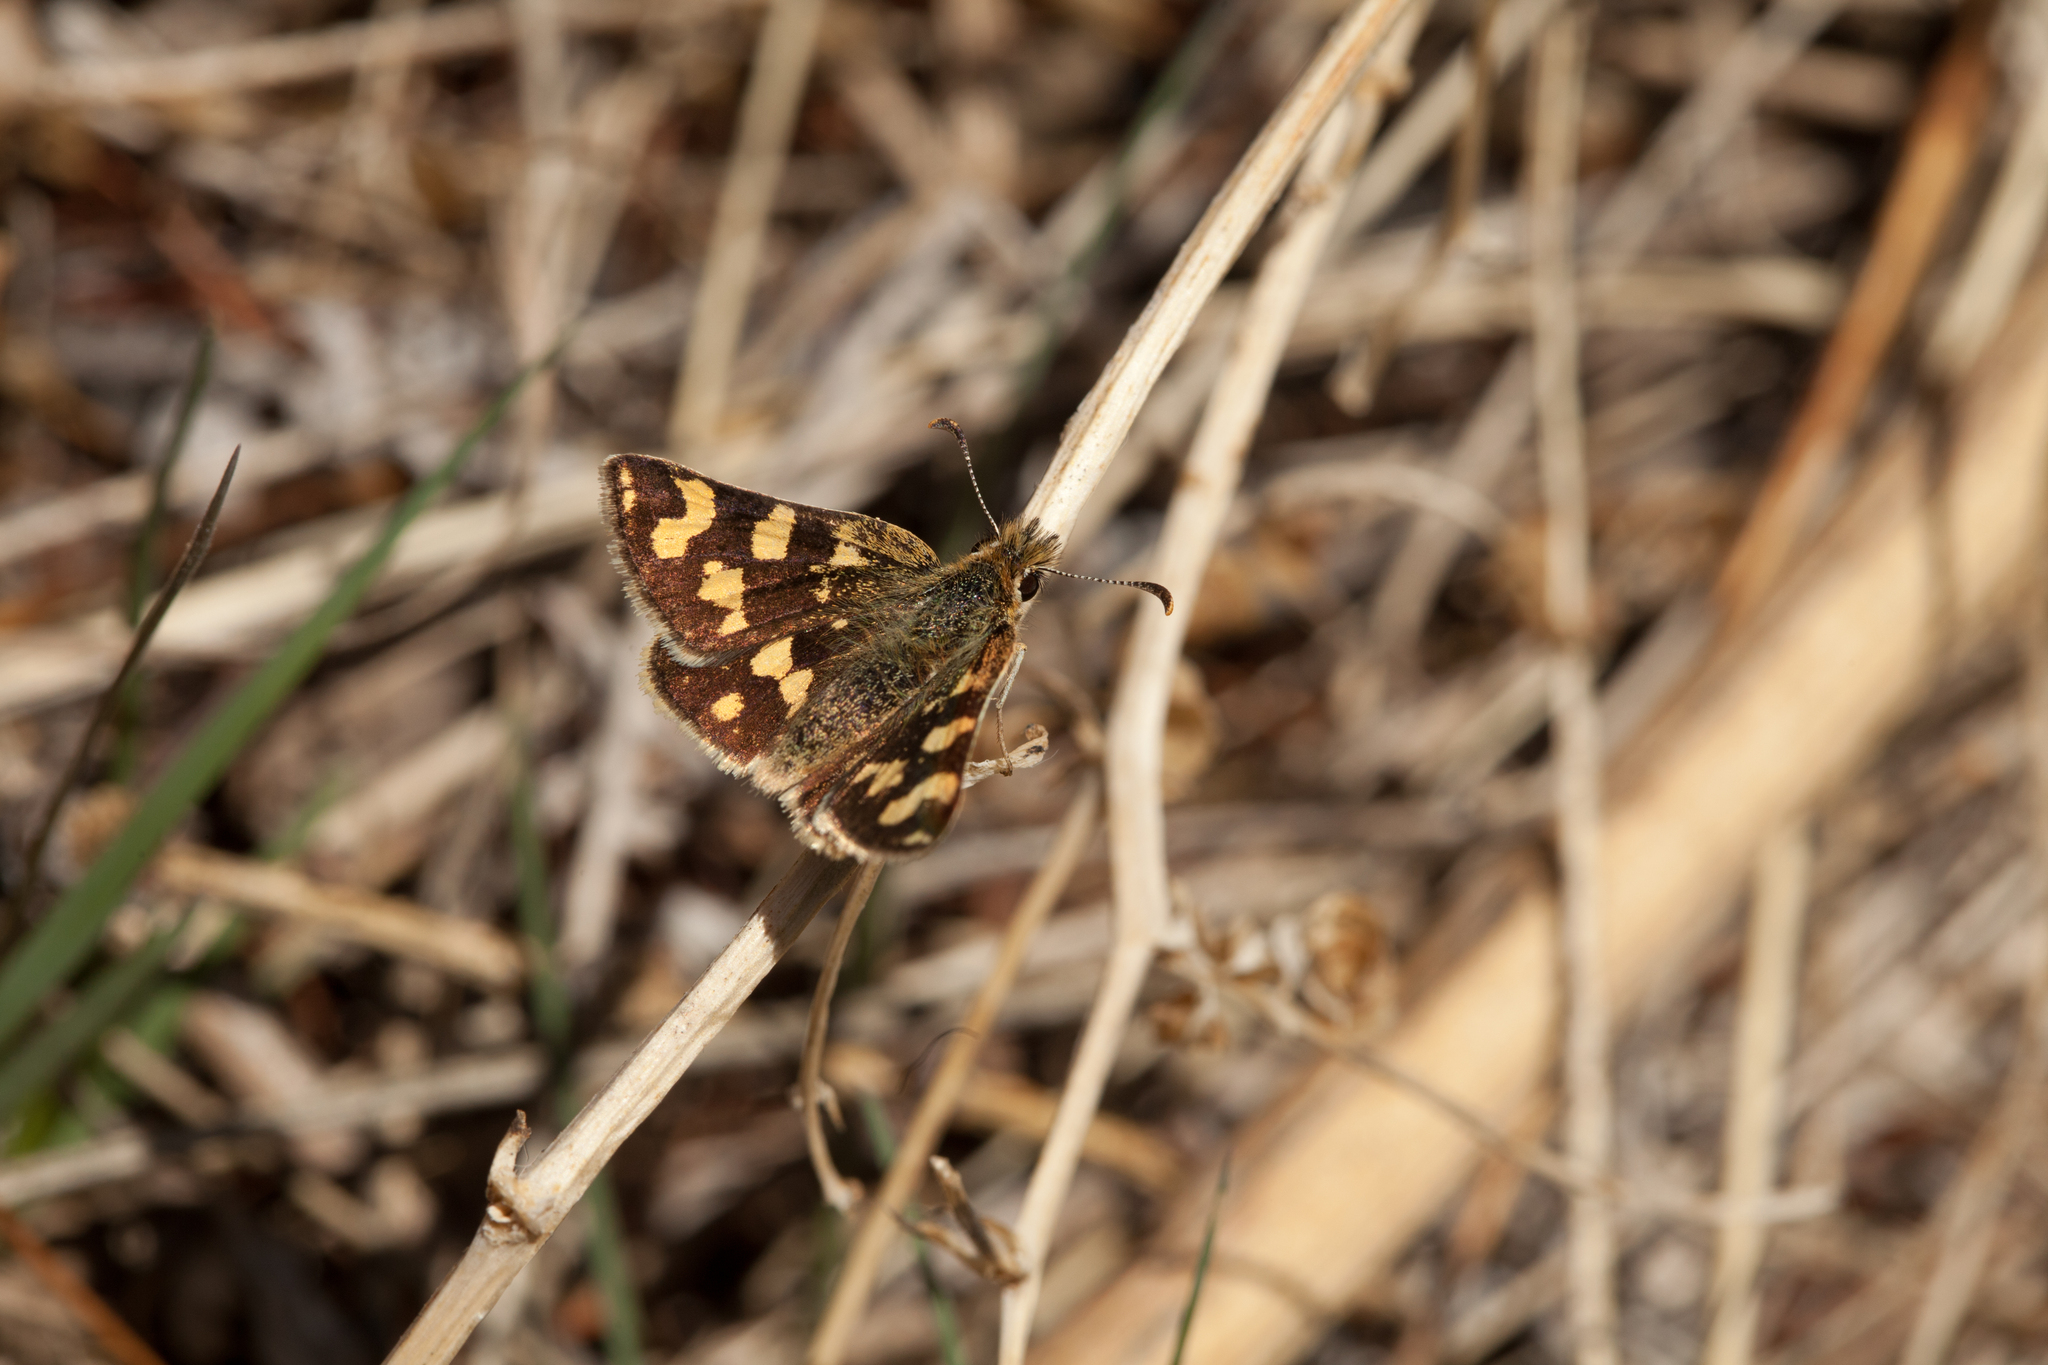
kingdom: Animalia
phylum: Arthropoda
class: Insecta
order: Lepidoptera
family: Hesperiidae
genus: Carterocephalus
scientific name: Carterocephalus argyrostigma
